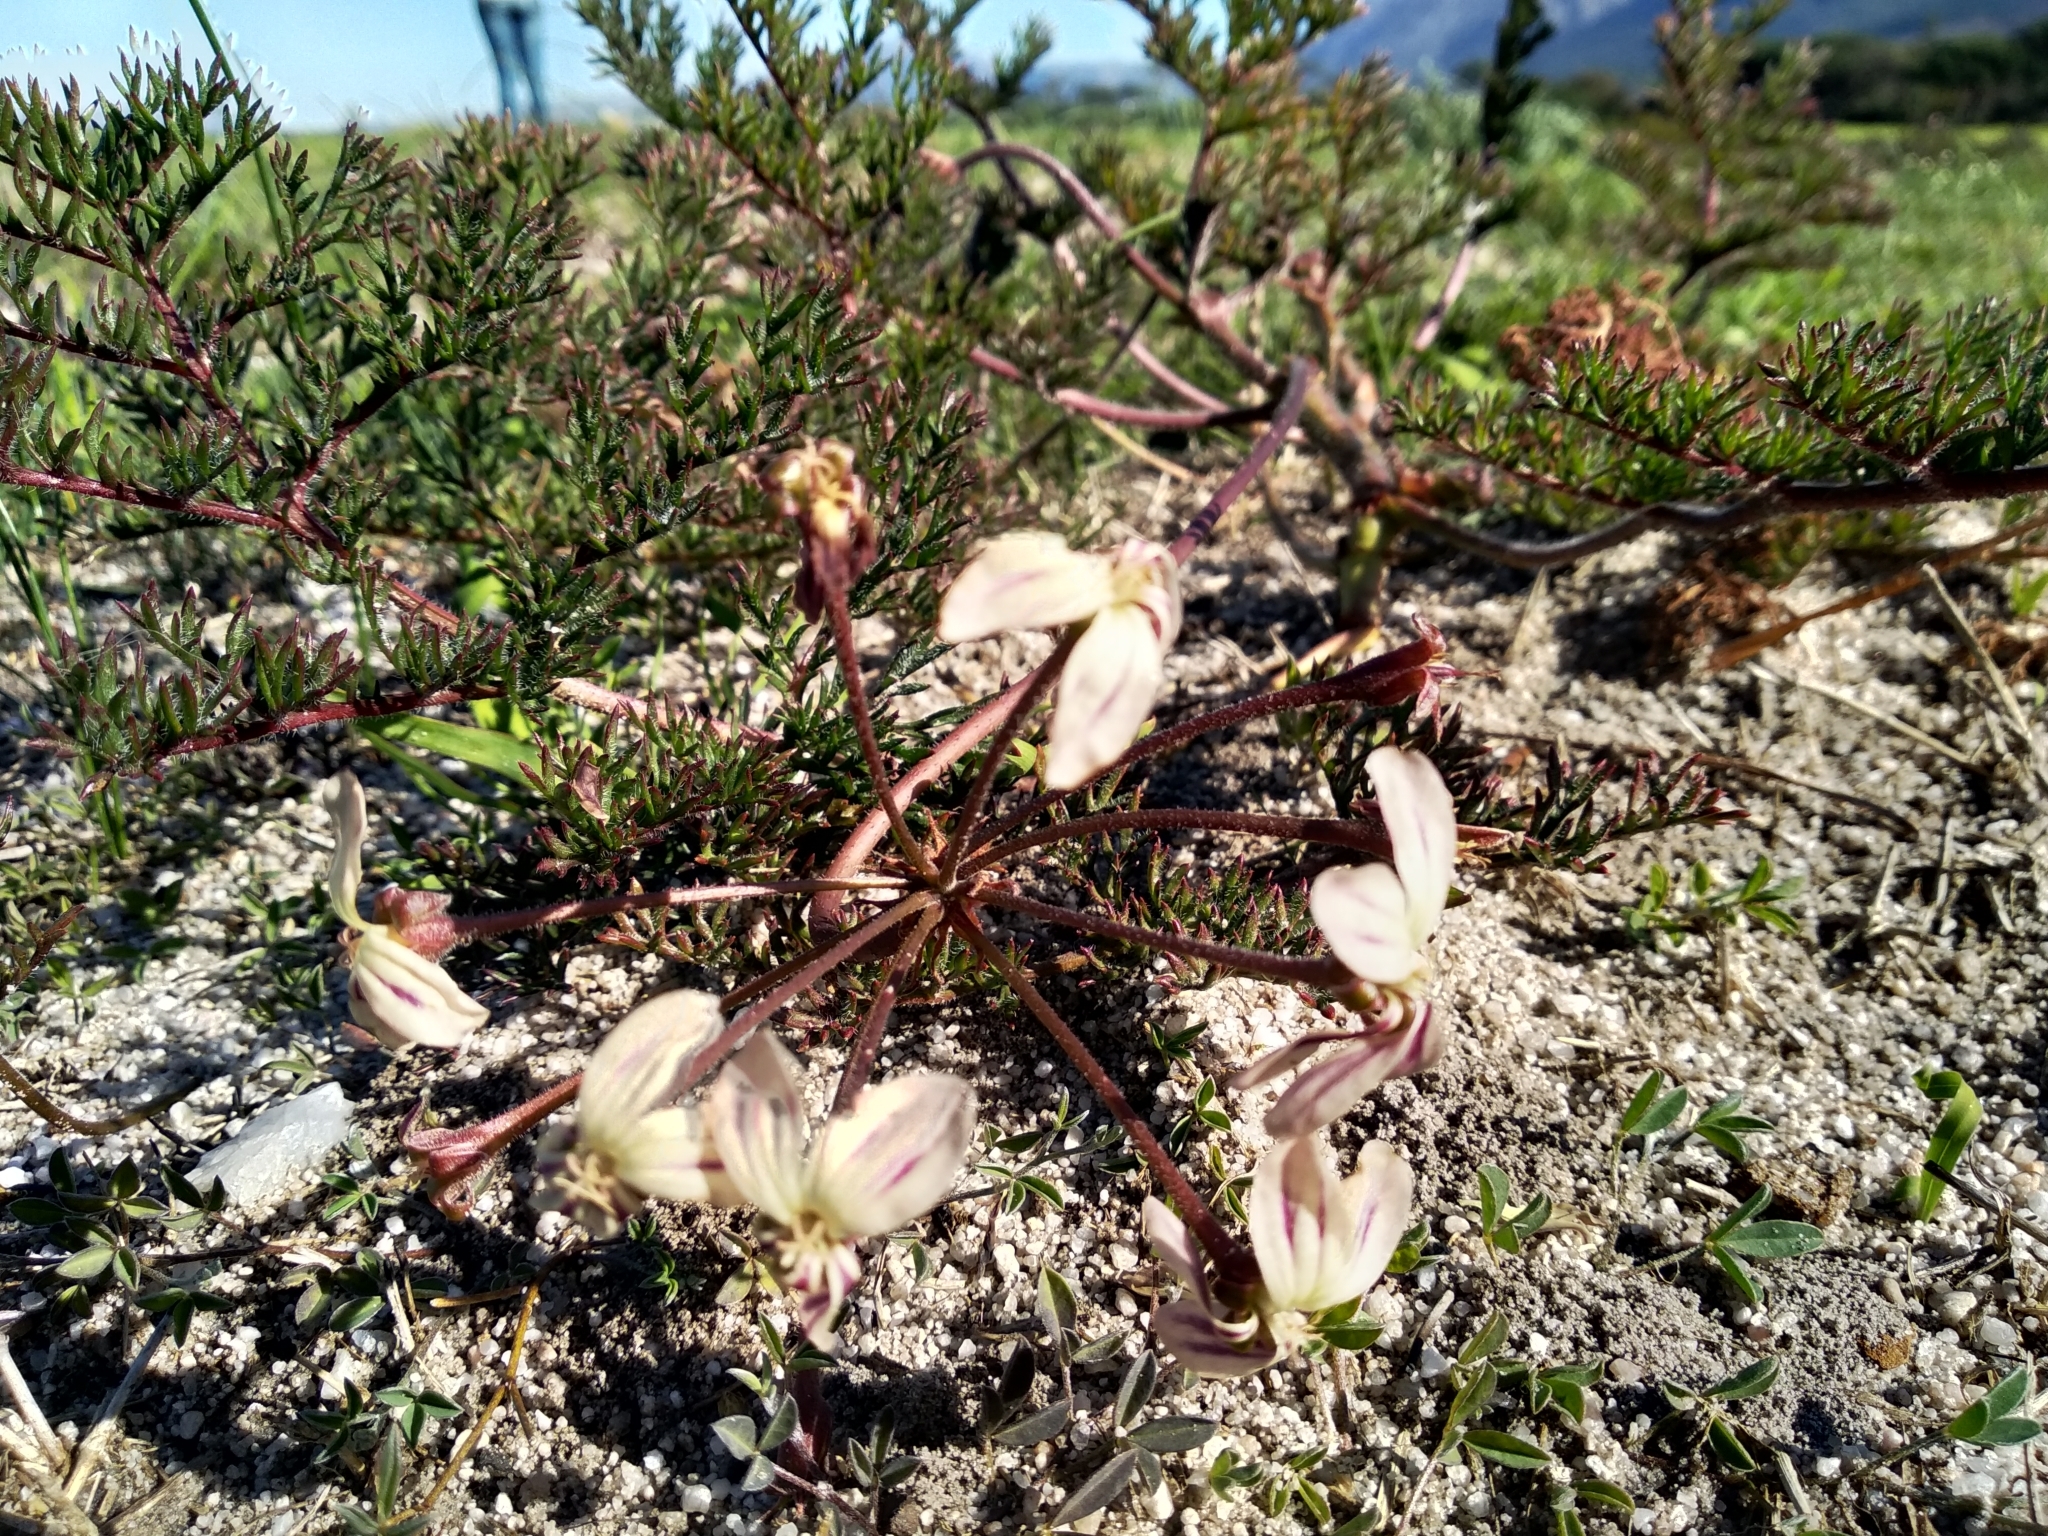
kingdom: Plantae
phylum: Tracheophyta
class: Magnoliopsida
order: Geraniales
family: Geraniaceae
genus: Pelargonium
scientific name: Pelargonium triste
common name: Night-scent pelargonium
